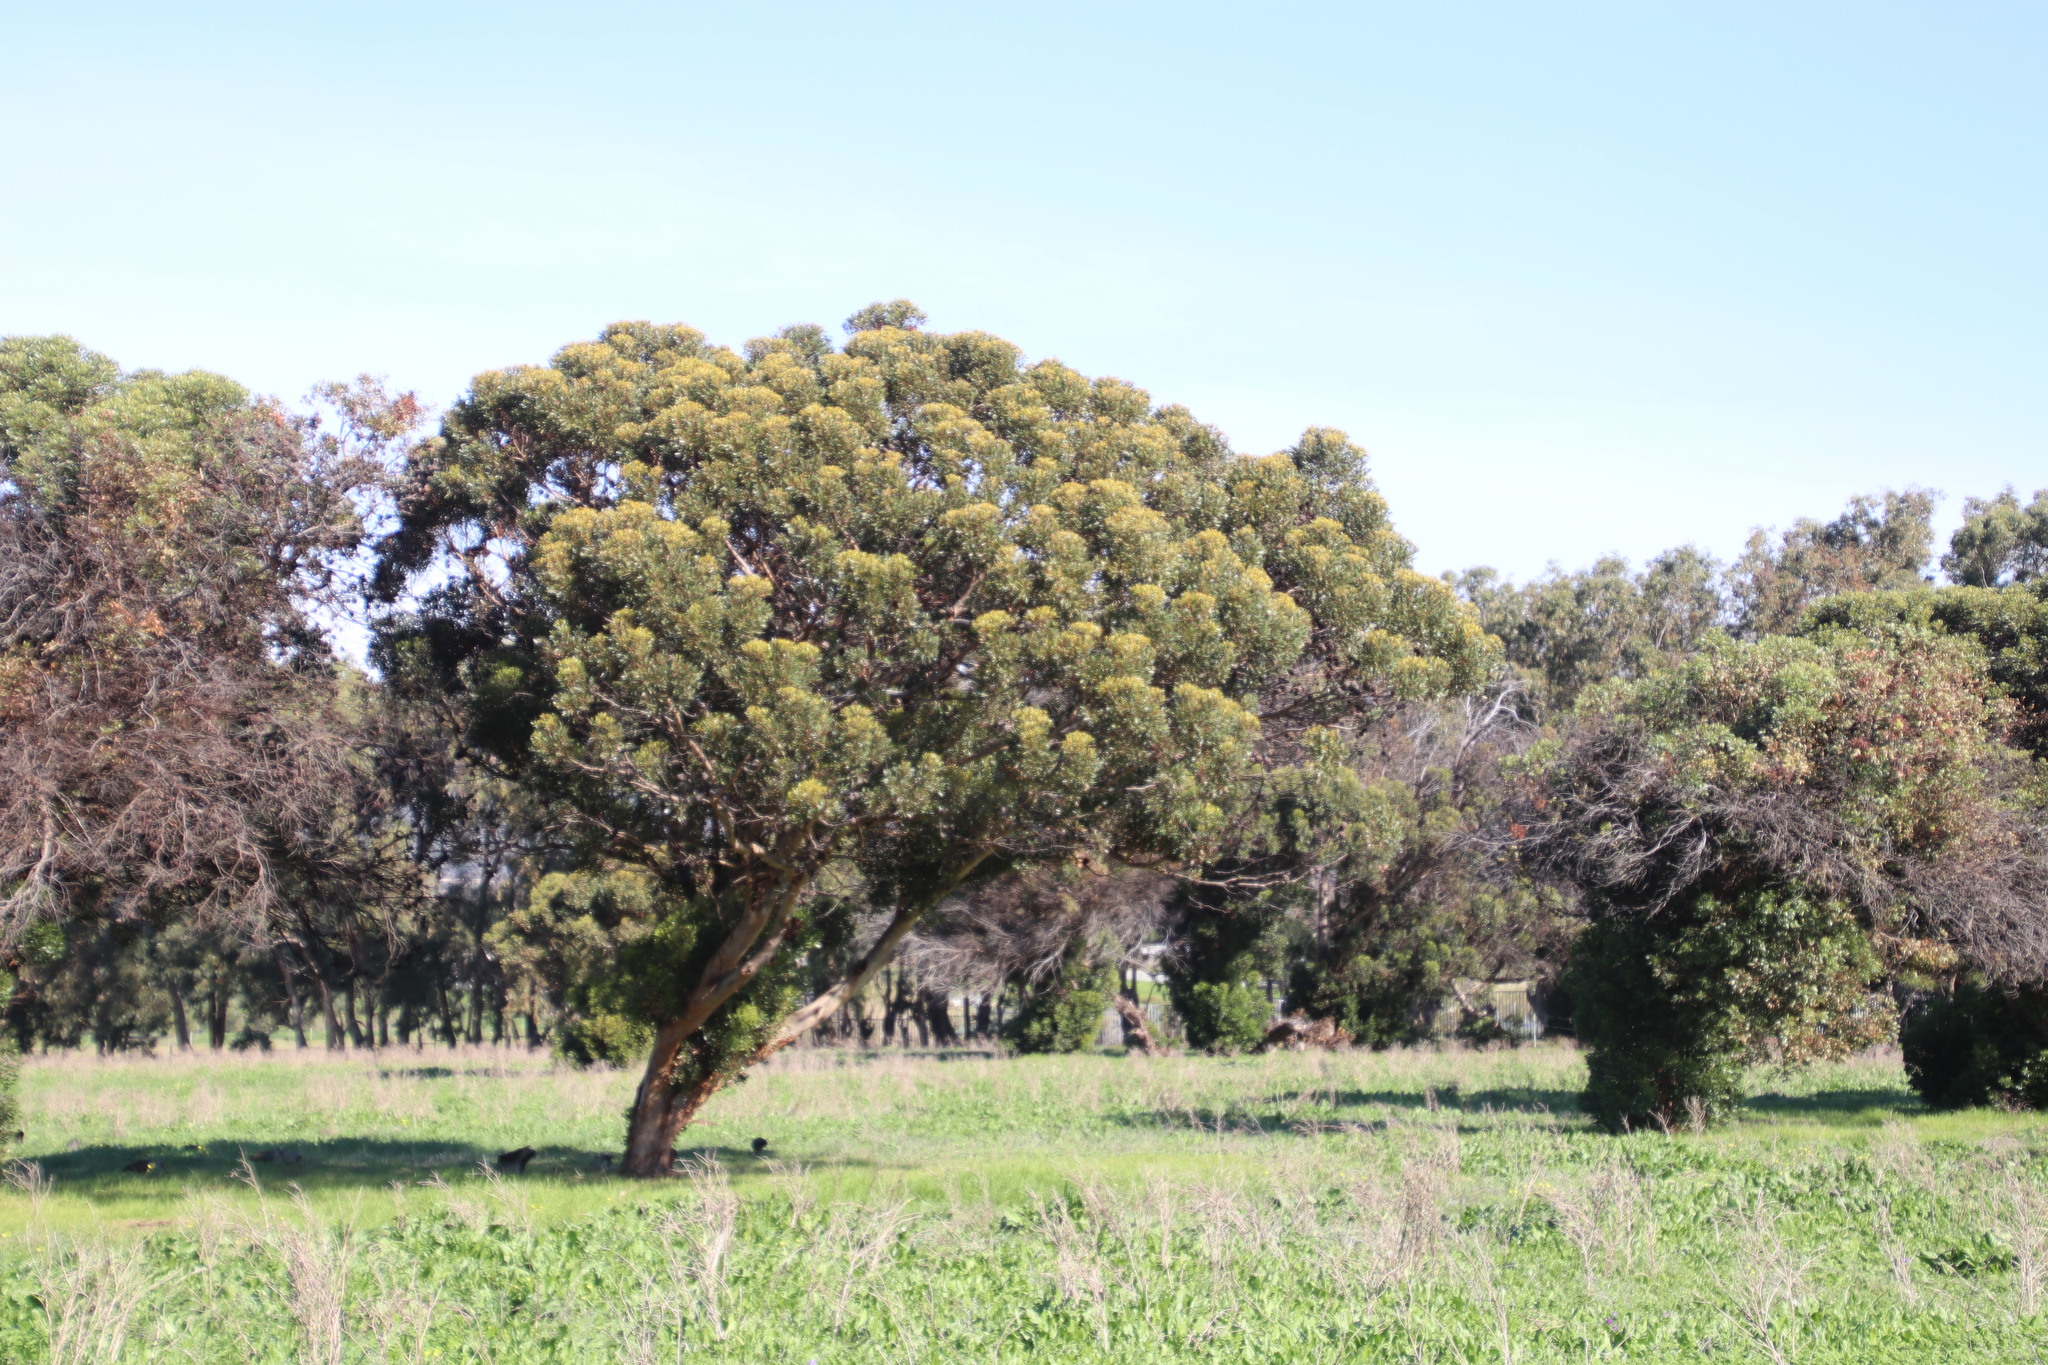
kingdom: Plantae
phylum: Tracheophyta
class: Magnoliopsida
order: Myrtales
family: Myrtaceae
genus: Eucalyptus
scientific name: Eucalyptus conferruminata
